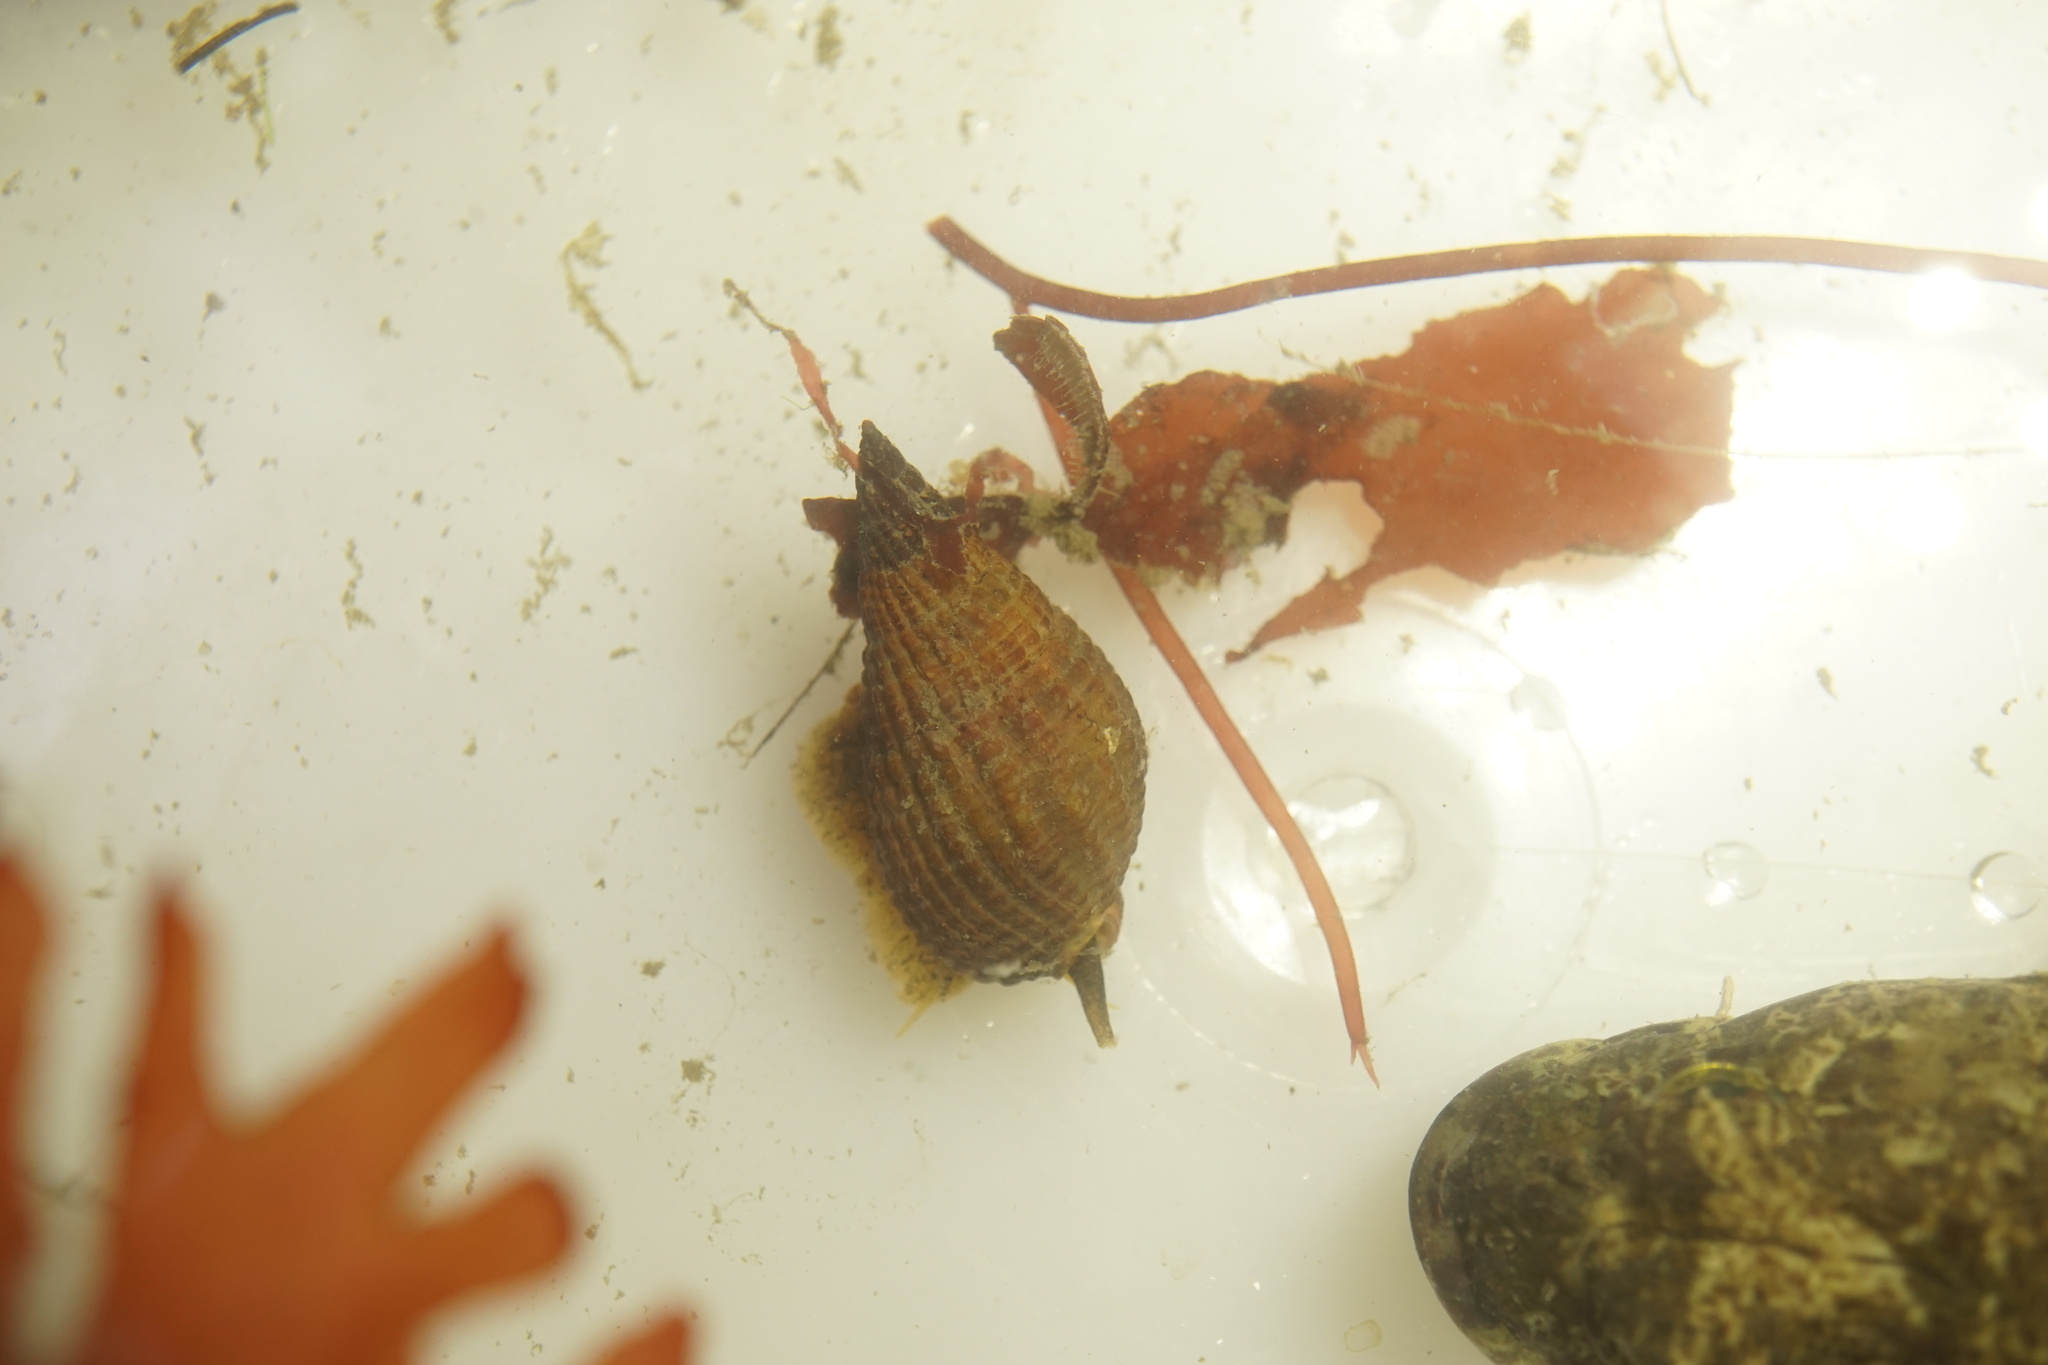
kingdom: Animalia
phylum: Mollusca
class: Gastropoda
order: Neogastropoda
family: Nassariidae
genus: Tritia
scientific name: Tritia reticulata
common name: Netted dog whelk
